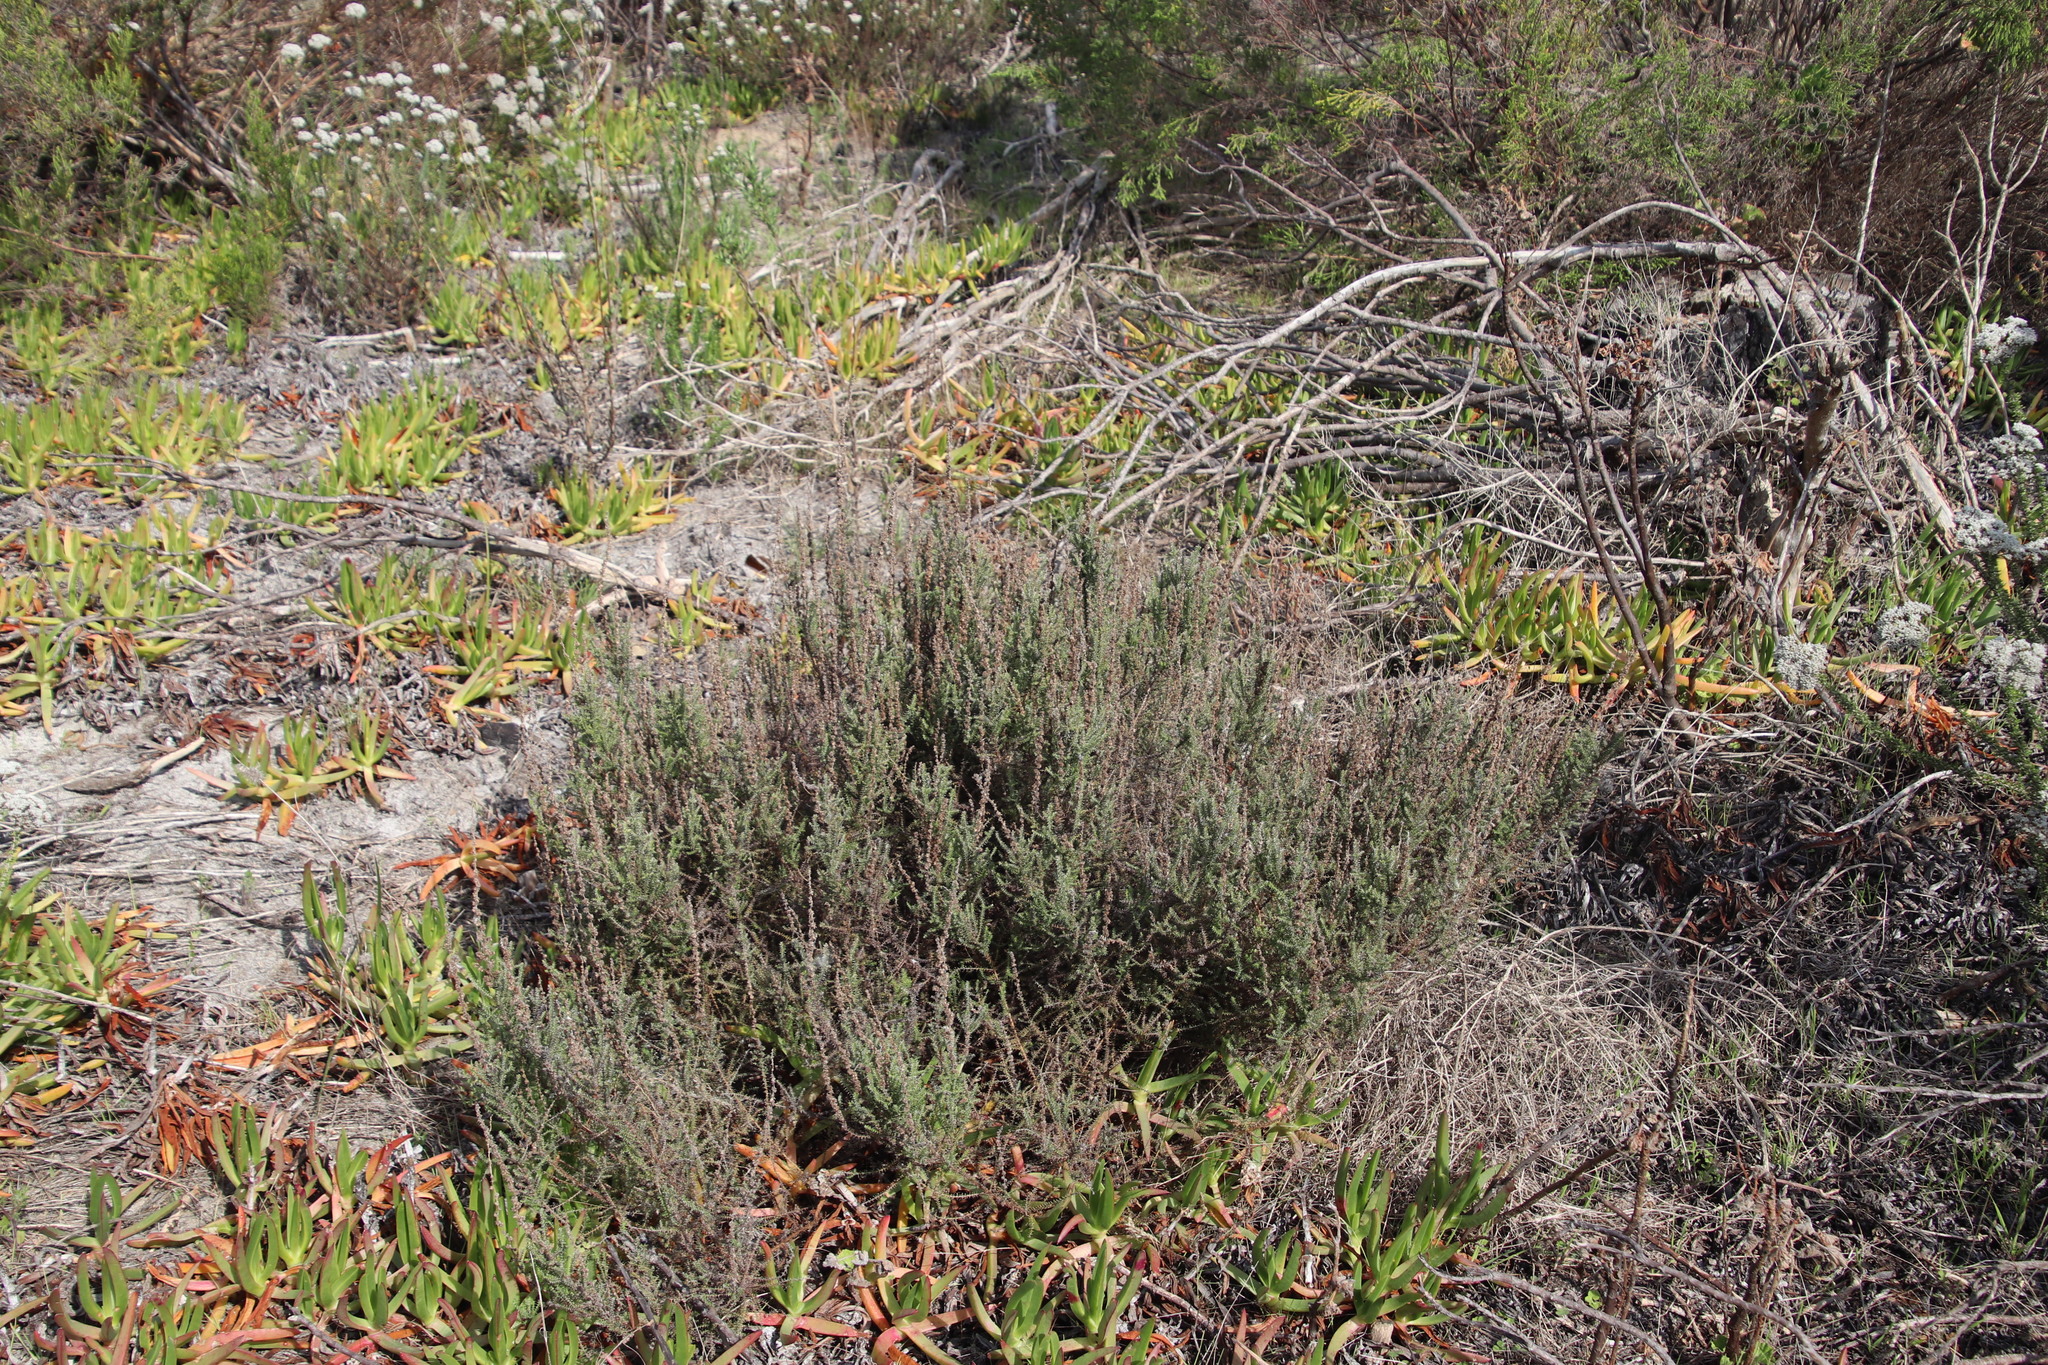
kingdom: Plantae
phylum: Tracheophyta
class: Magnoliopsida
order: Asterales
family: Asteraceae
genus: Seriphium
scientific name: Seriphium cinereum
